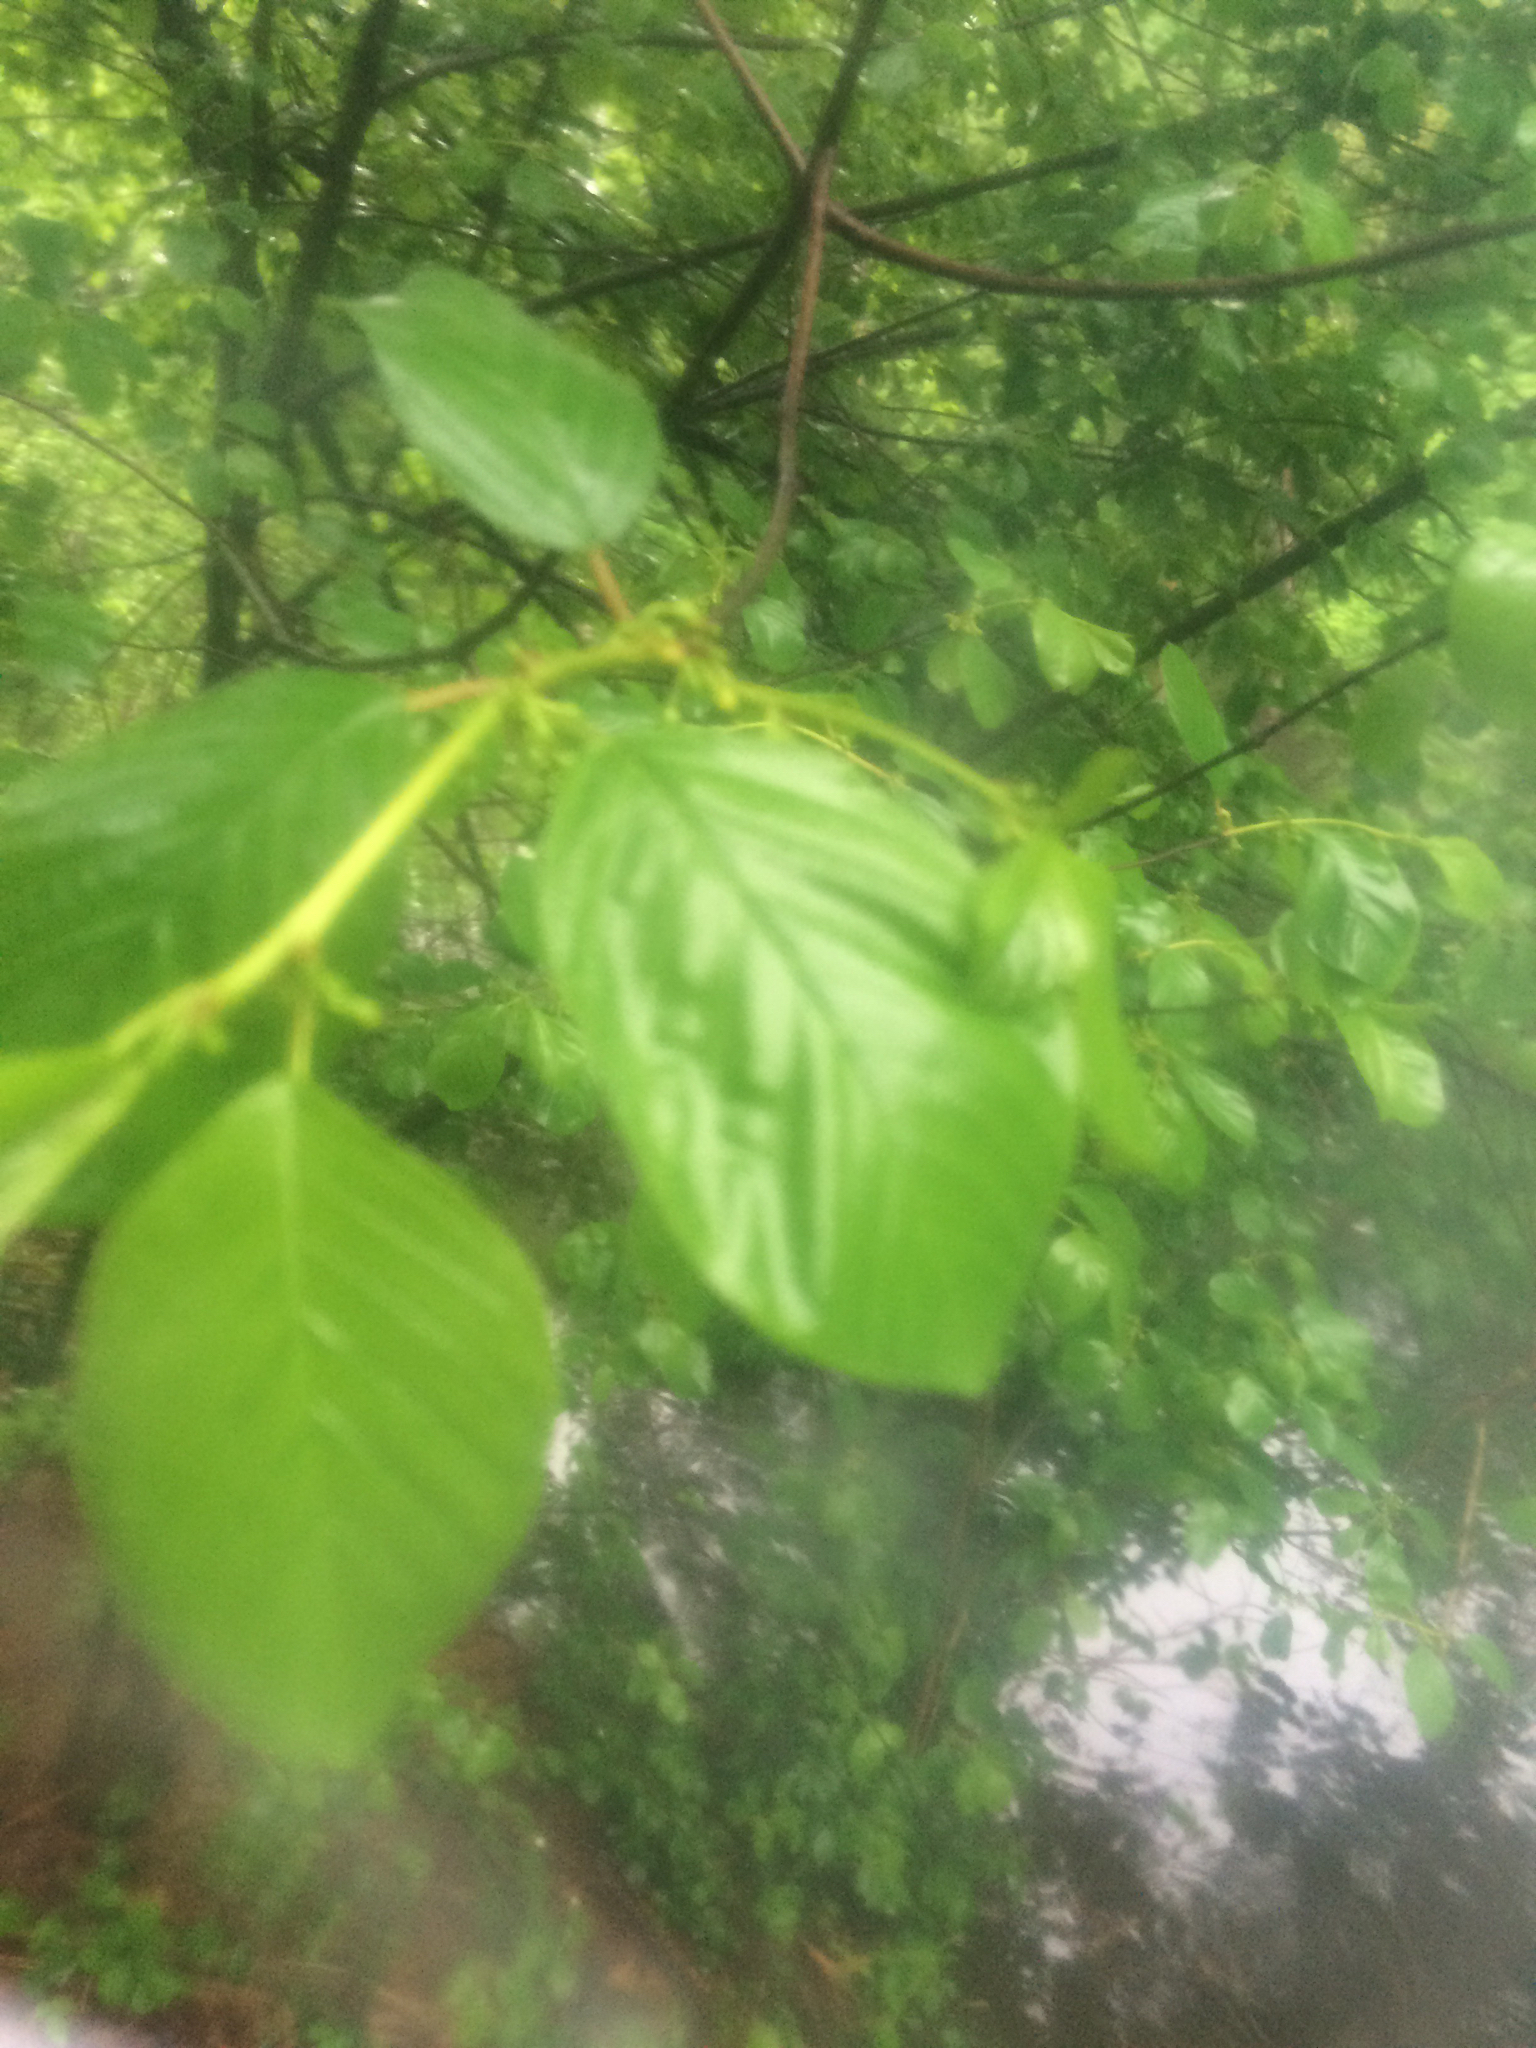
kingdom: Plantae
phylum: Tracheophyta
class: Magnoliopsida
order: Rosales
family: Rhamnaceae
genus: Frangula
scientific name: Frangula alnus
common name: Alder buckthorn
